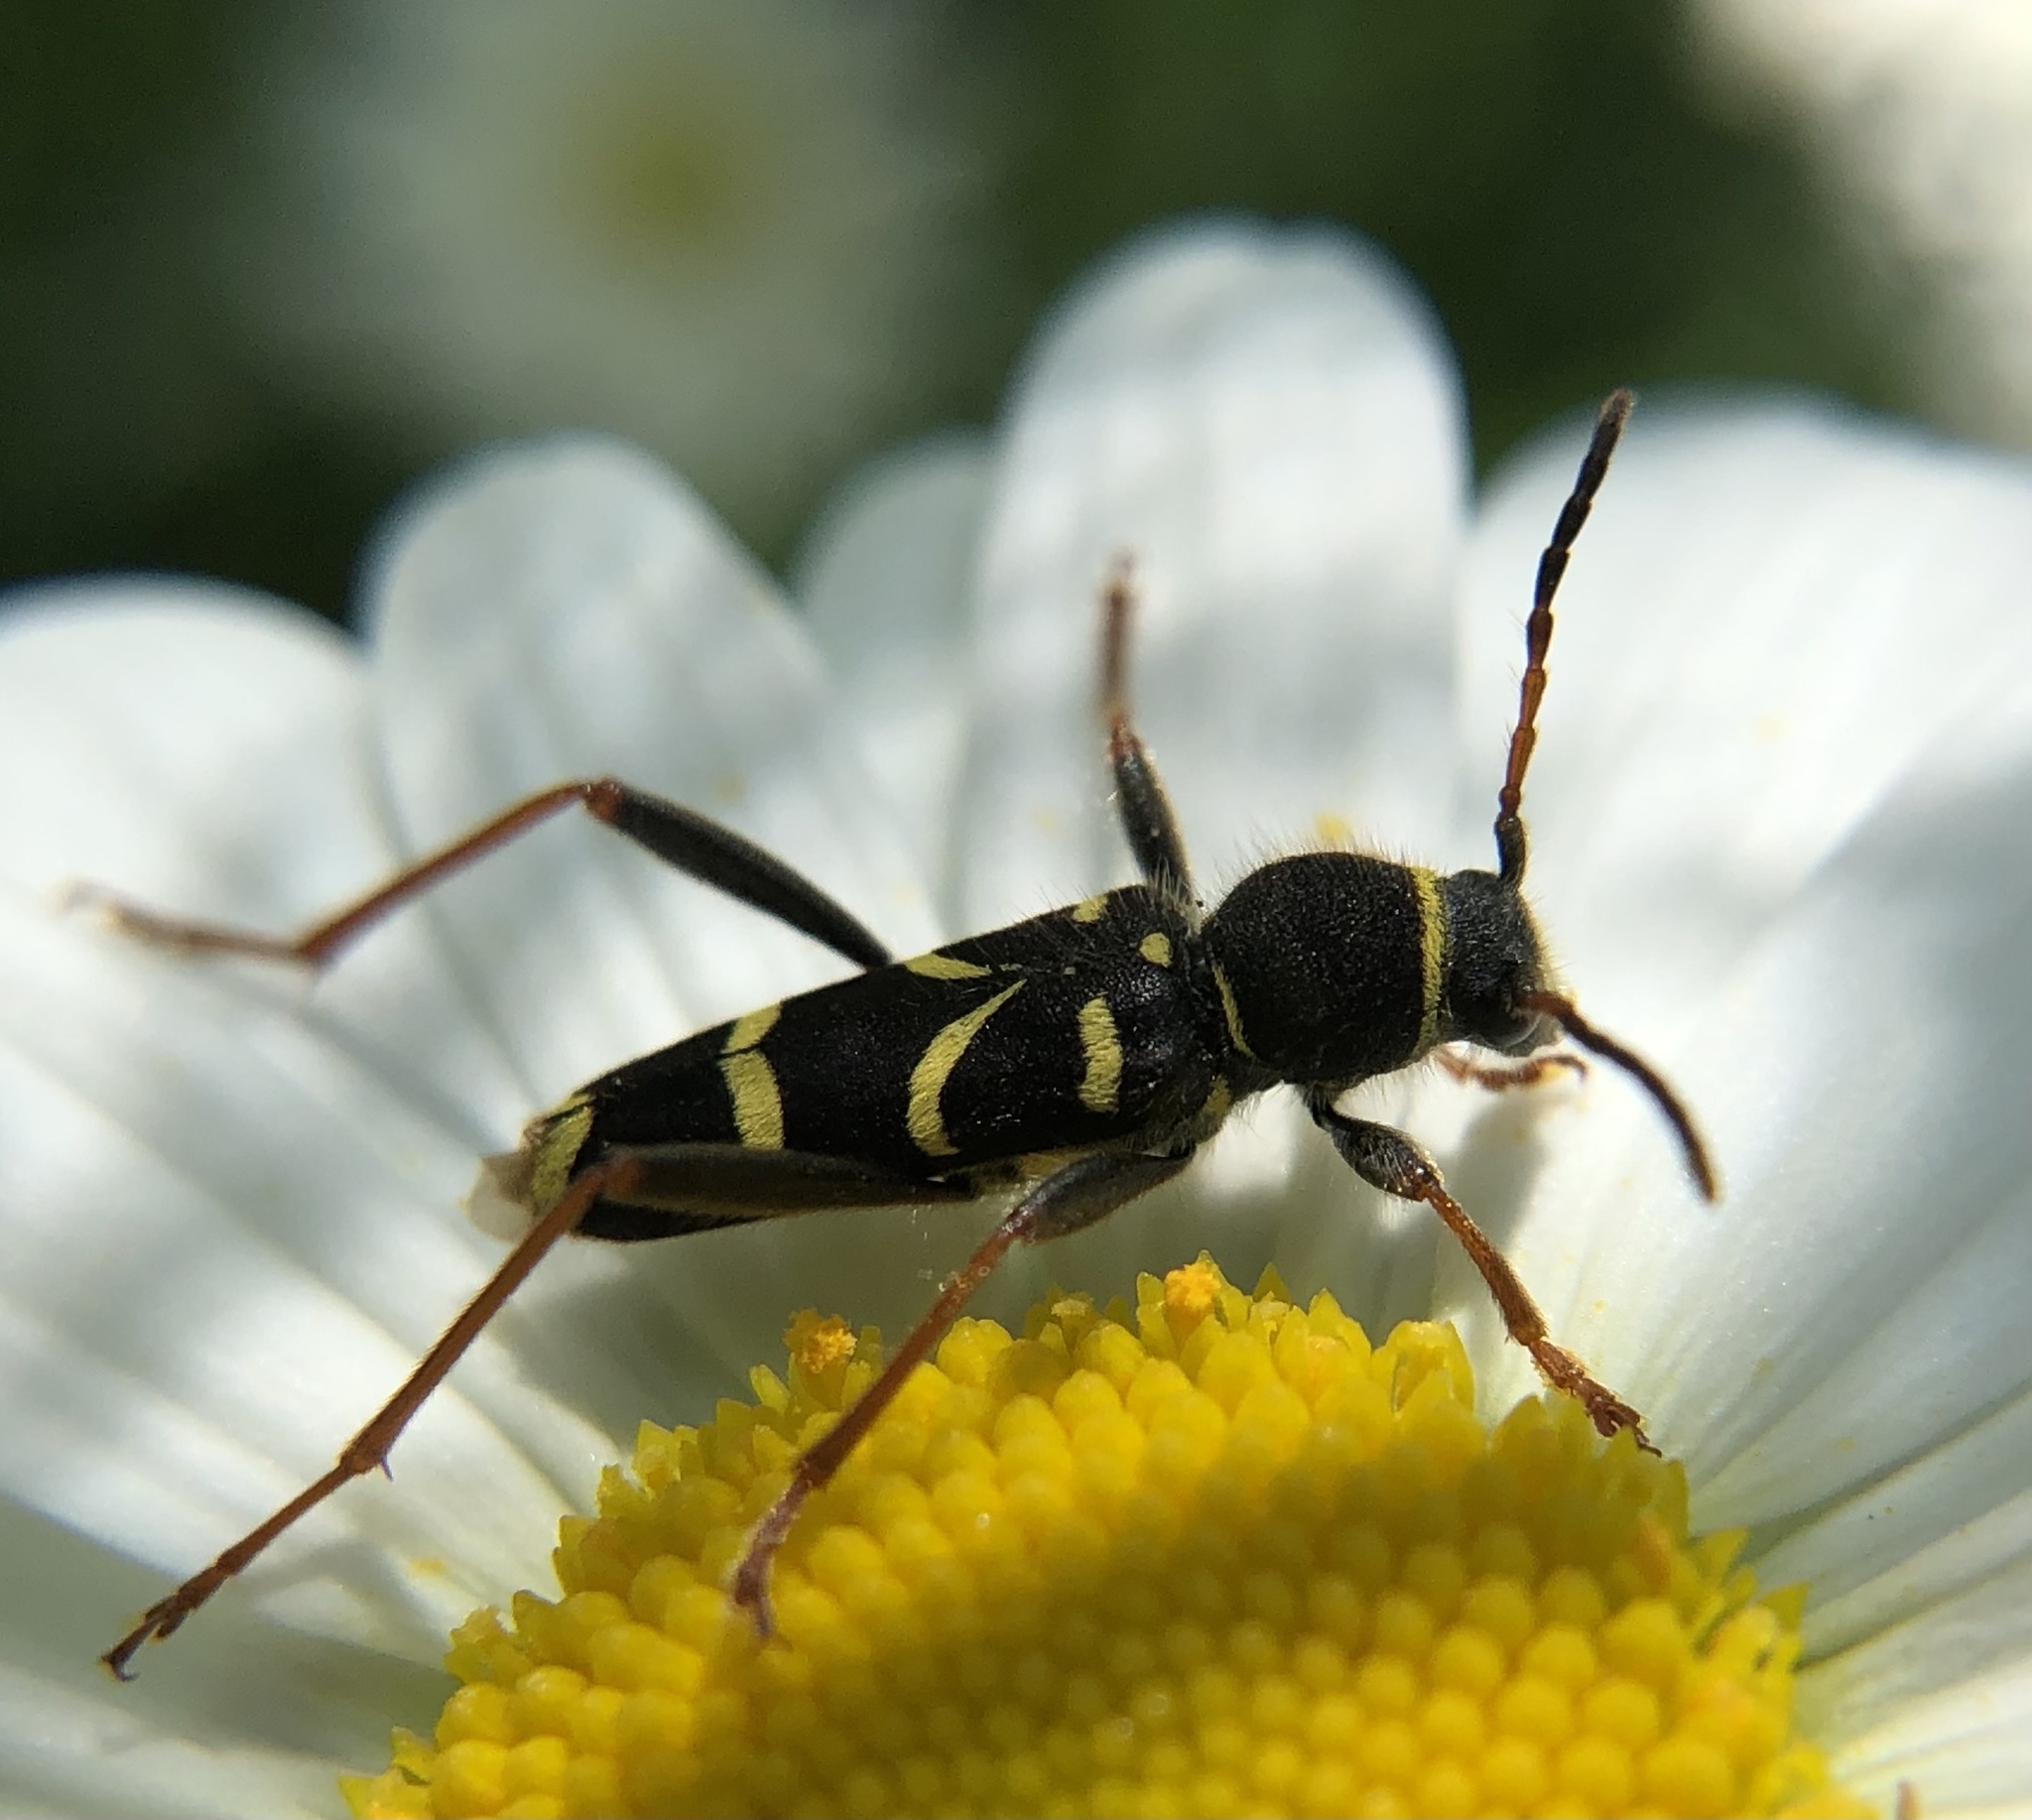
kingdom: Animalia
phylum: Arthropoda
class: Insecta
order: Coleoptera
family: Cerambycidae
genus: Clytus
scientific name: Clytus arietis
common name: Wasp beetle
